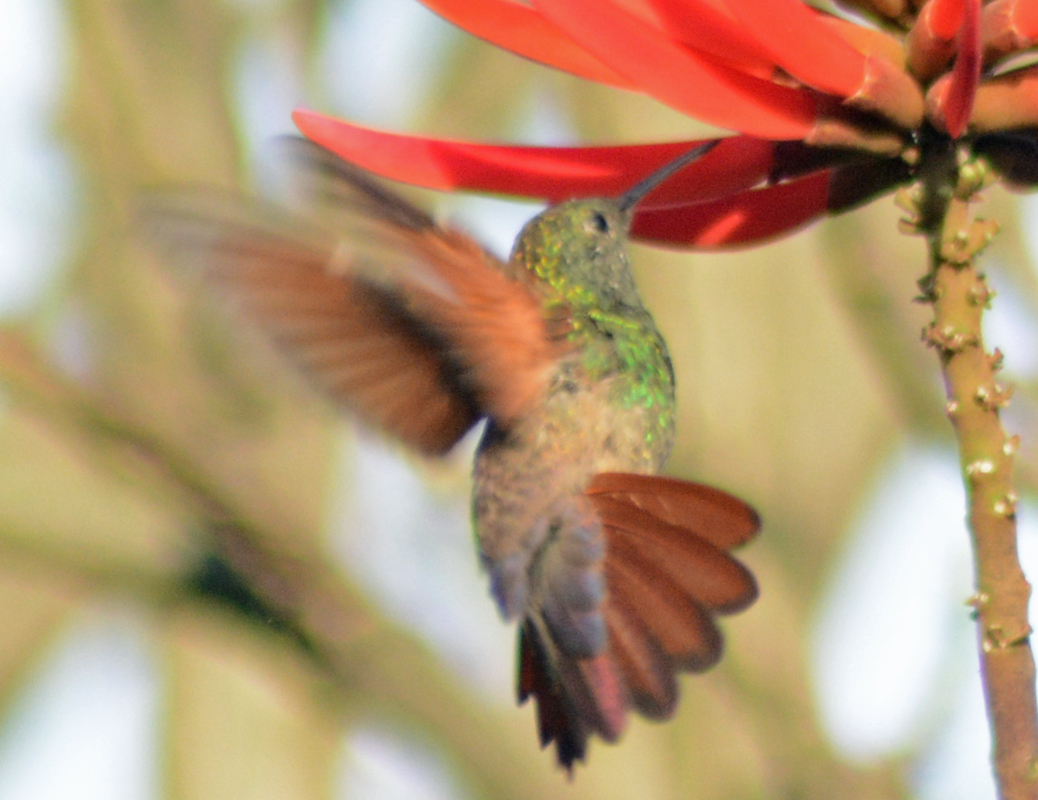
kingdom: Animalia
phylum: Chordata
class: Aves
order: Apodiformes
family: Trochilidae
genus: Saucerottia
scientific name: Saucerottia beryllina
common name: Berylline hummingbird
